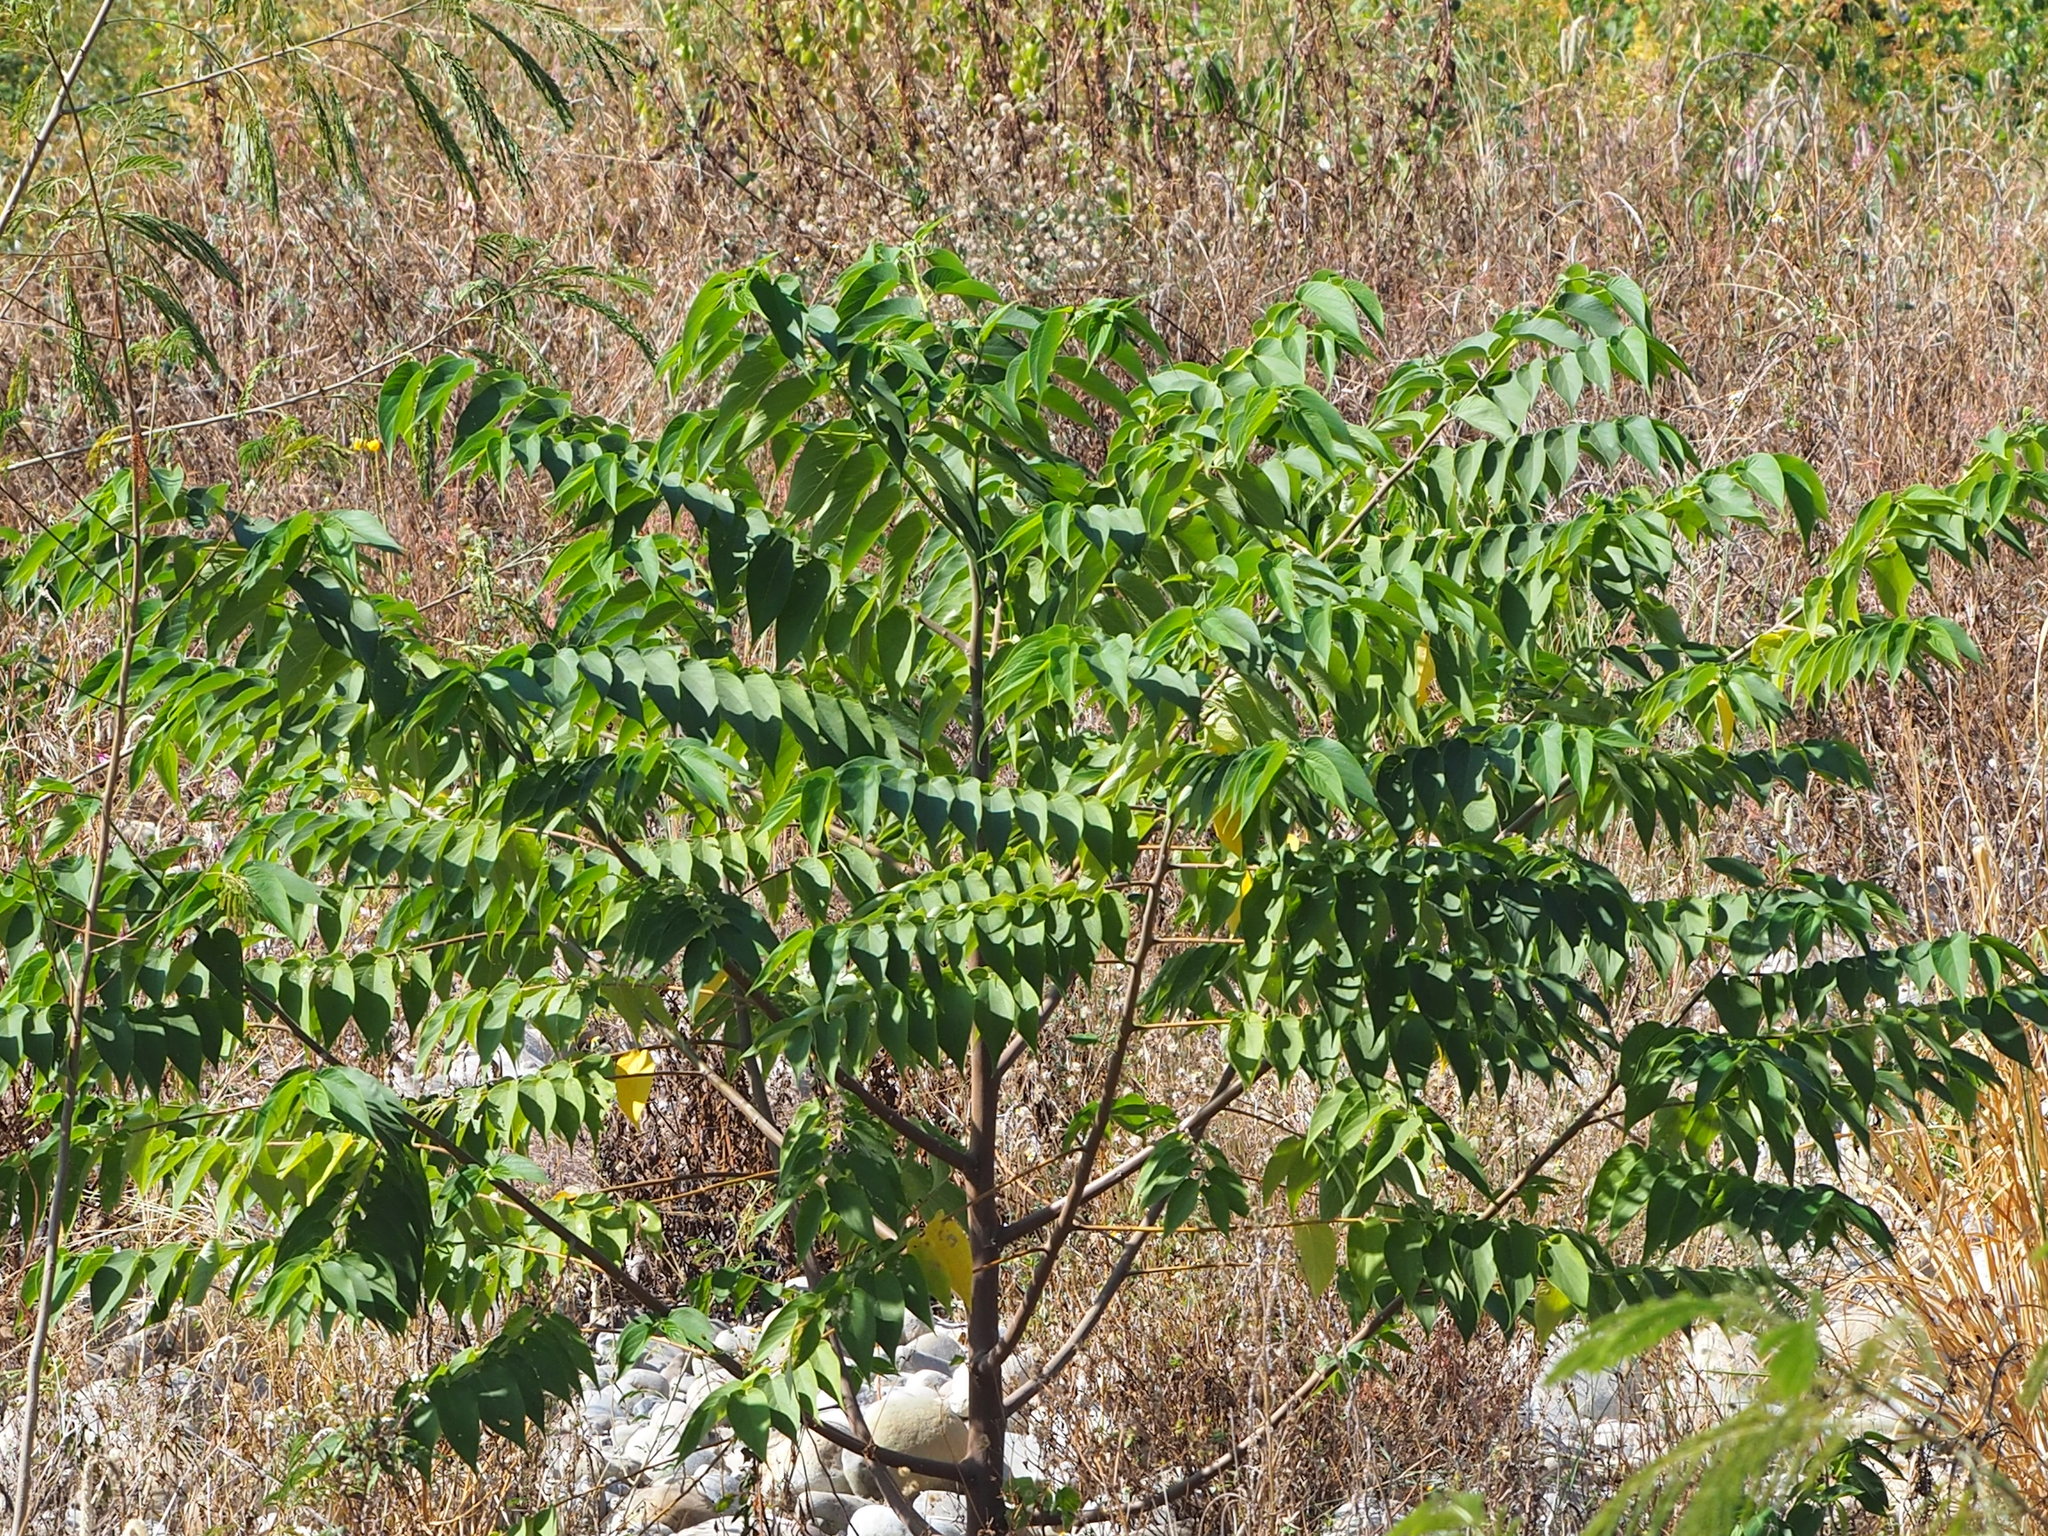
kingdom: Plantae
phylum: Tracheophyta
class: Magnoliopsida
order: Rosales
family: Cannabaceae
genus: Trema
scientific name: Trema orientale
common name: Indian charcoal tree
